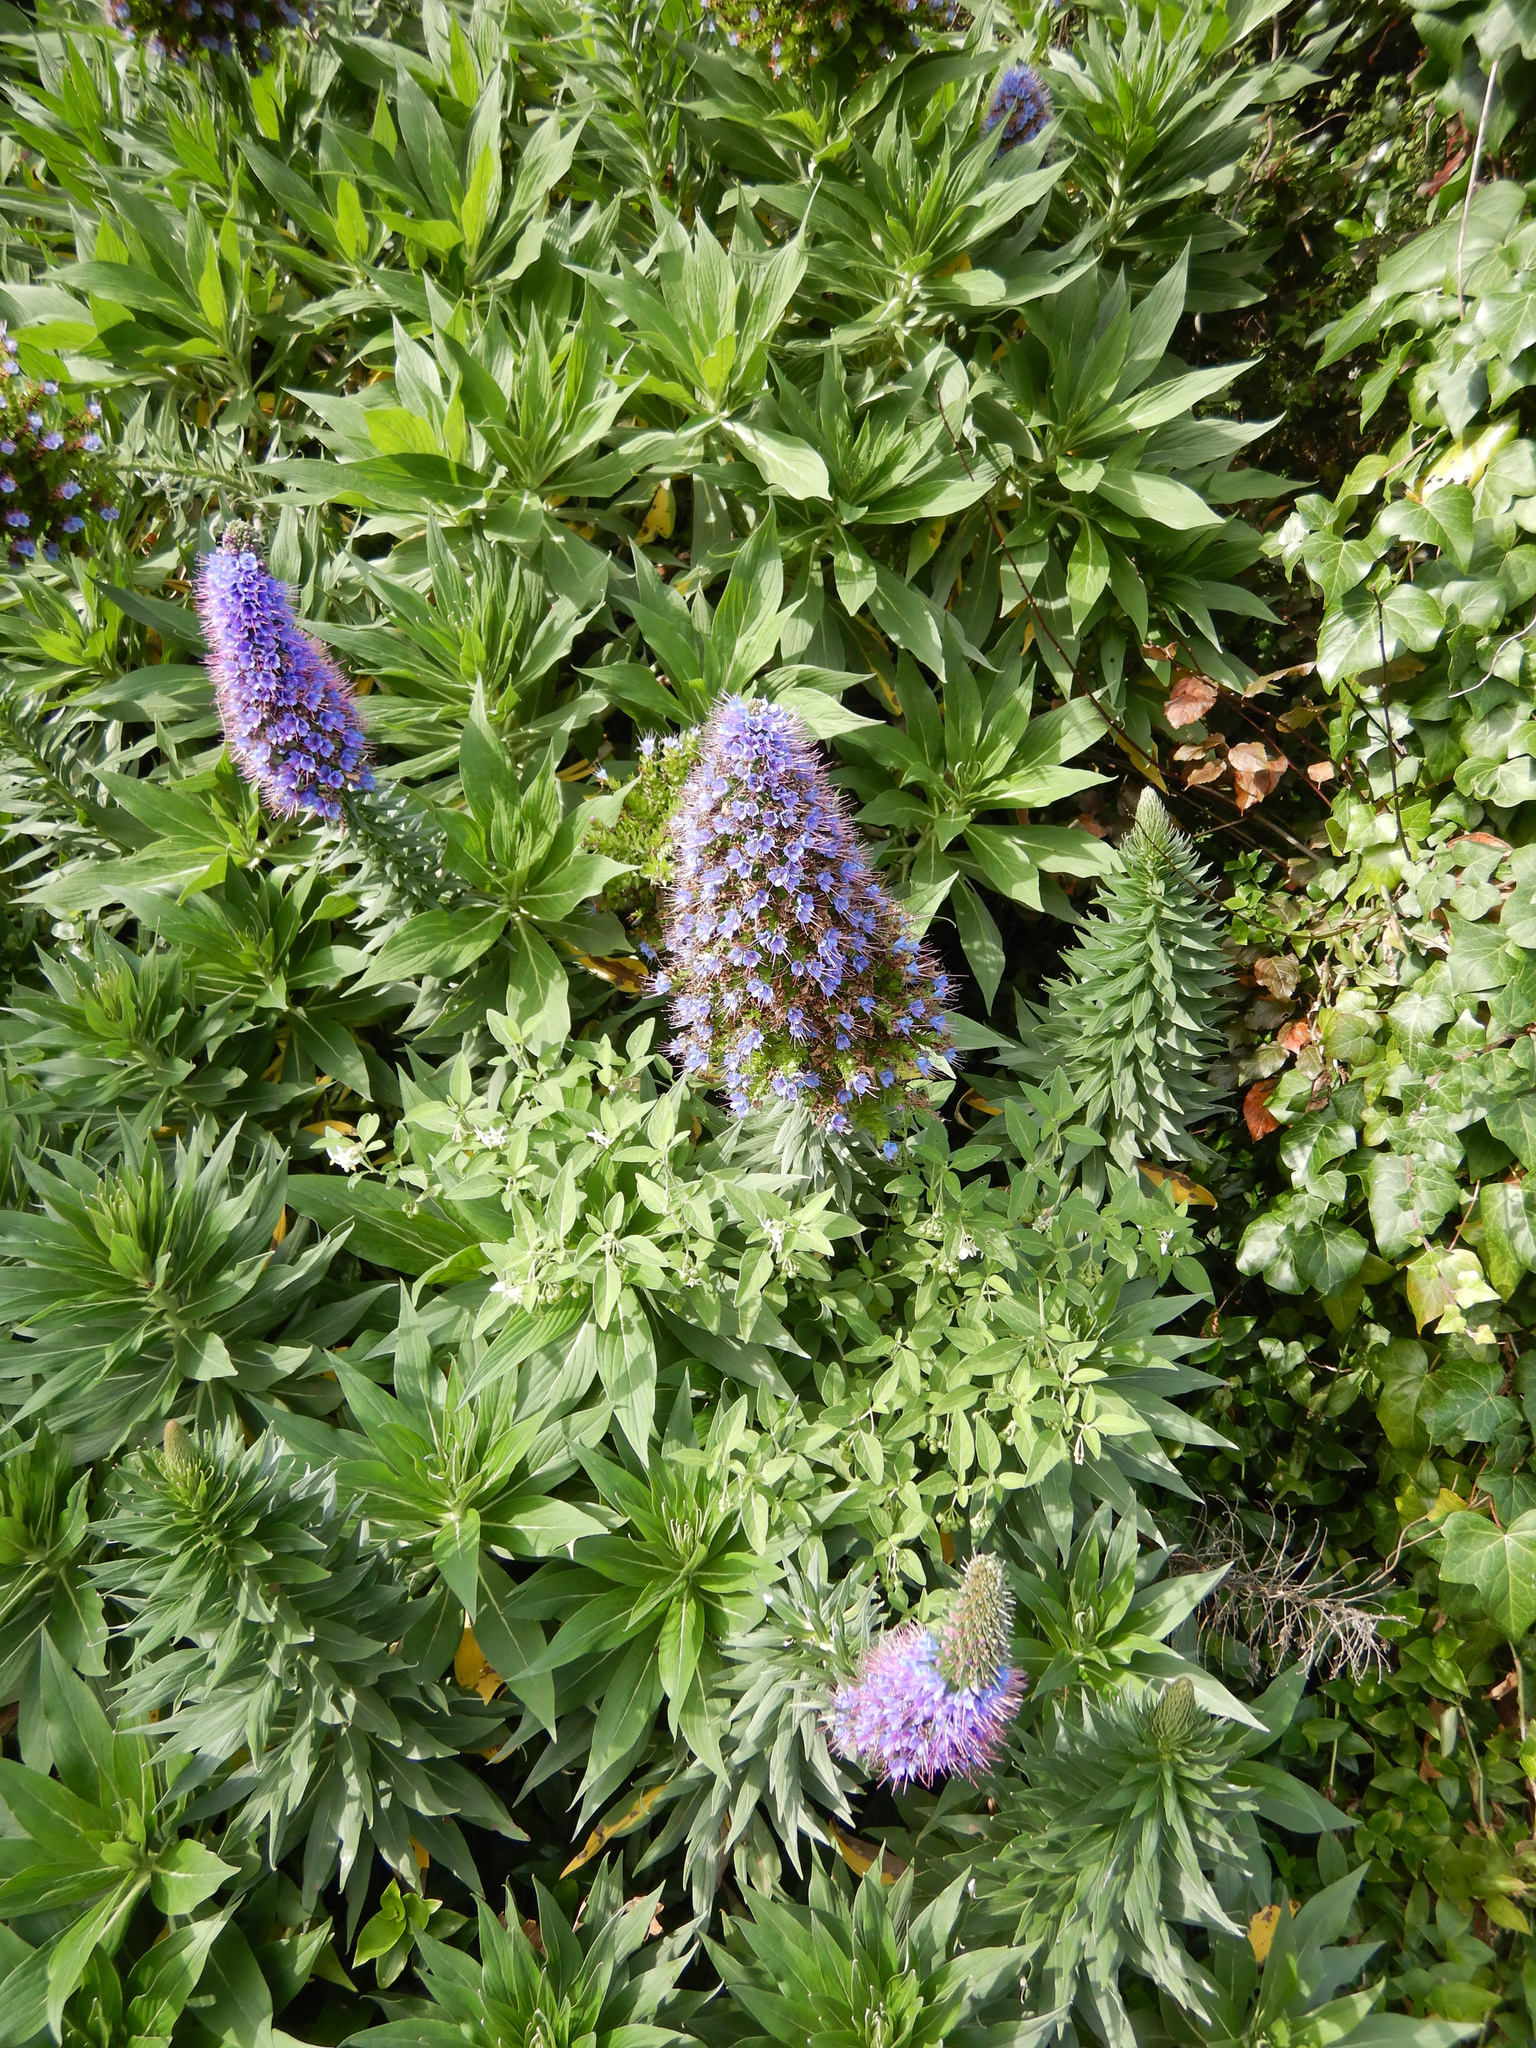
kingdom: Plantae
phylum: Tracheophyta
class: Magnoliopsida
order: Boraginales
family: Boraginaceae
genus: Echium
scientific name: Echium candicans
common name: Pride of madeira
